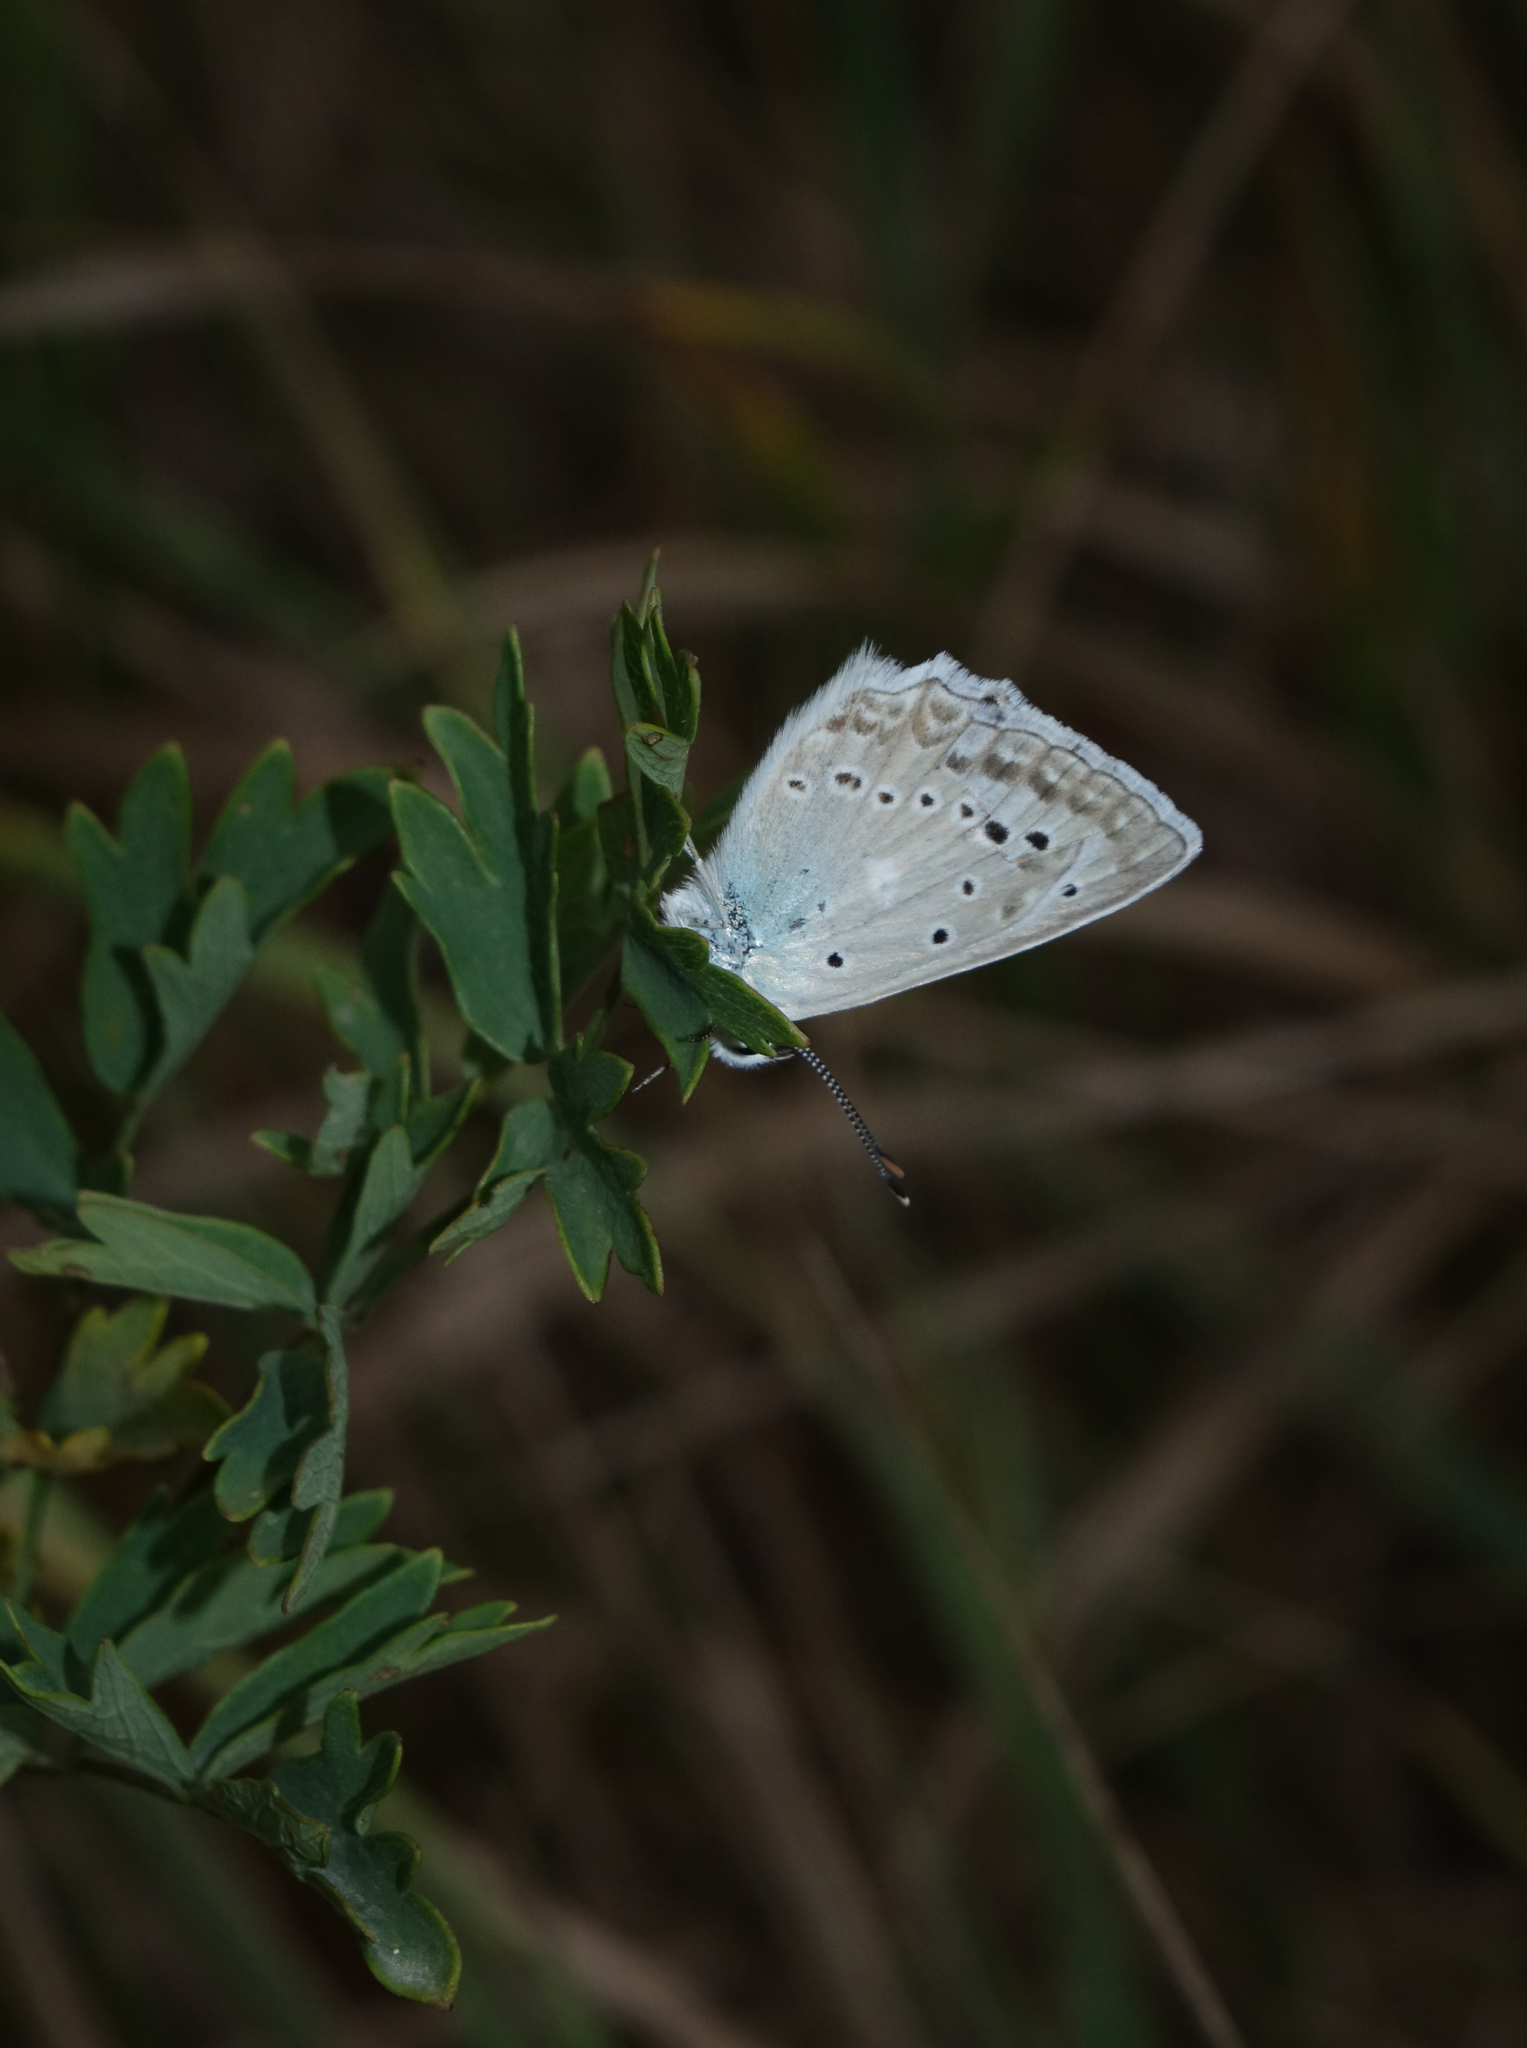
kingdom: Animalia
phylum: Arthropoda
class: Insecta
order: Lepidoptera
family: Lycaenidae
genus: Polyommatus
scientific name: Polyommatus daphnis
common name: Meleager's blue
